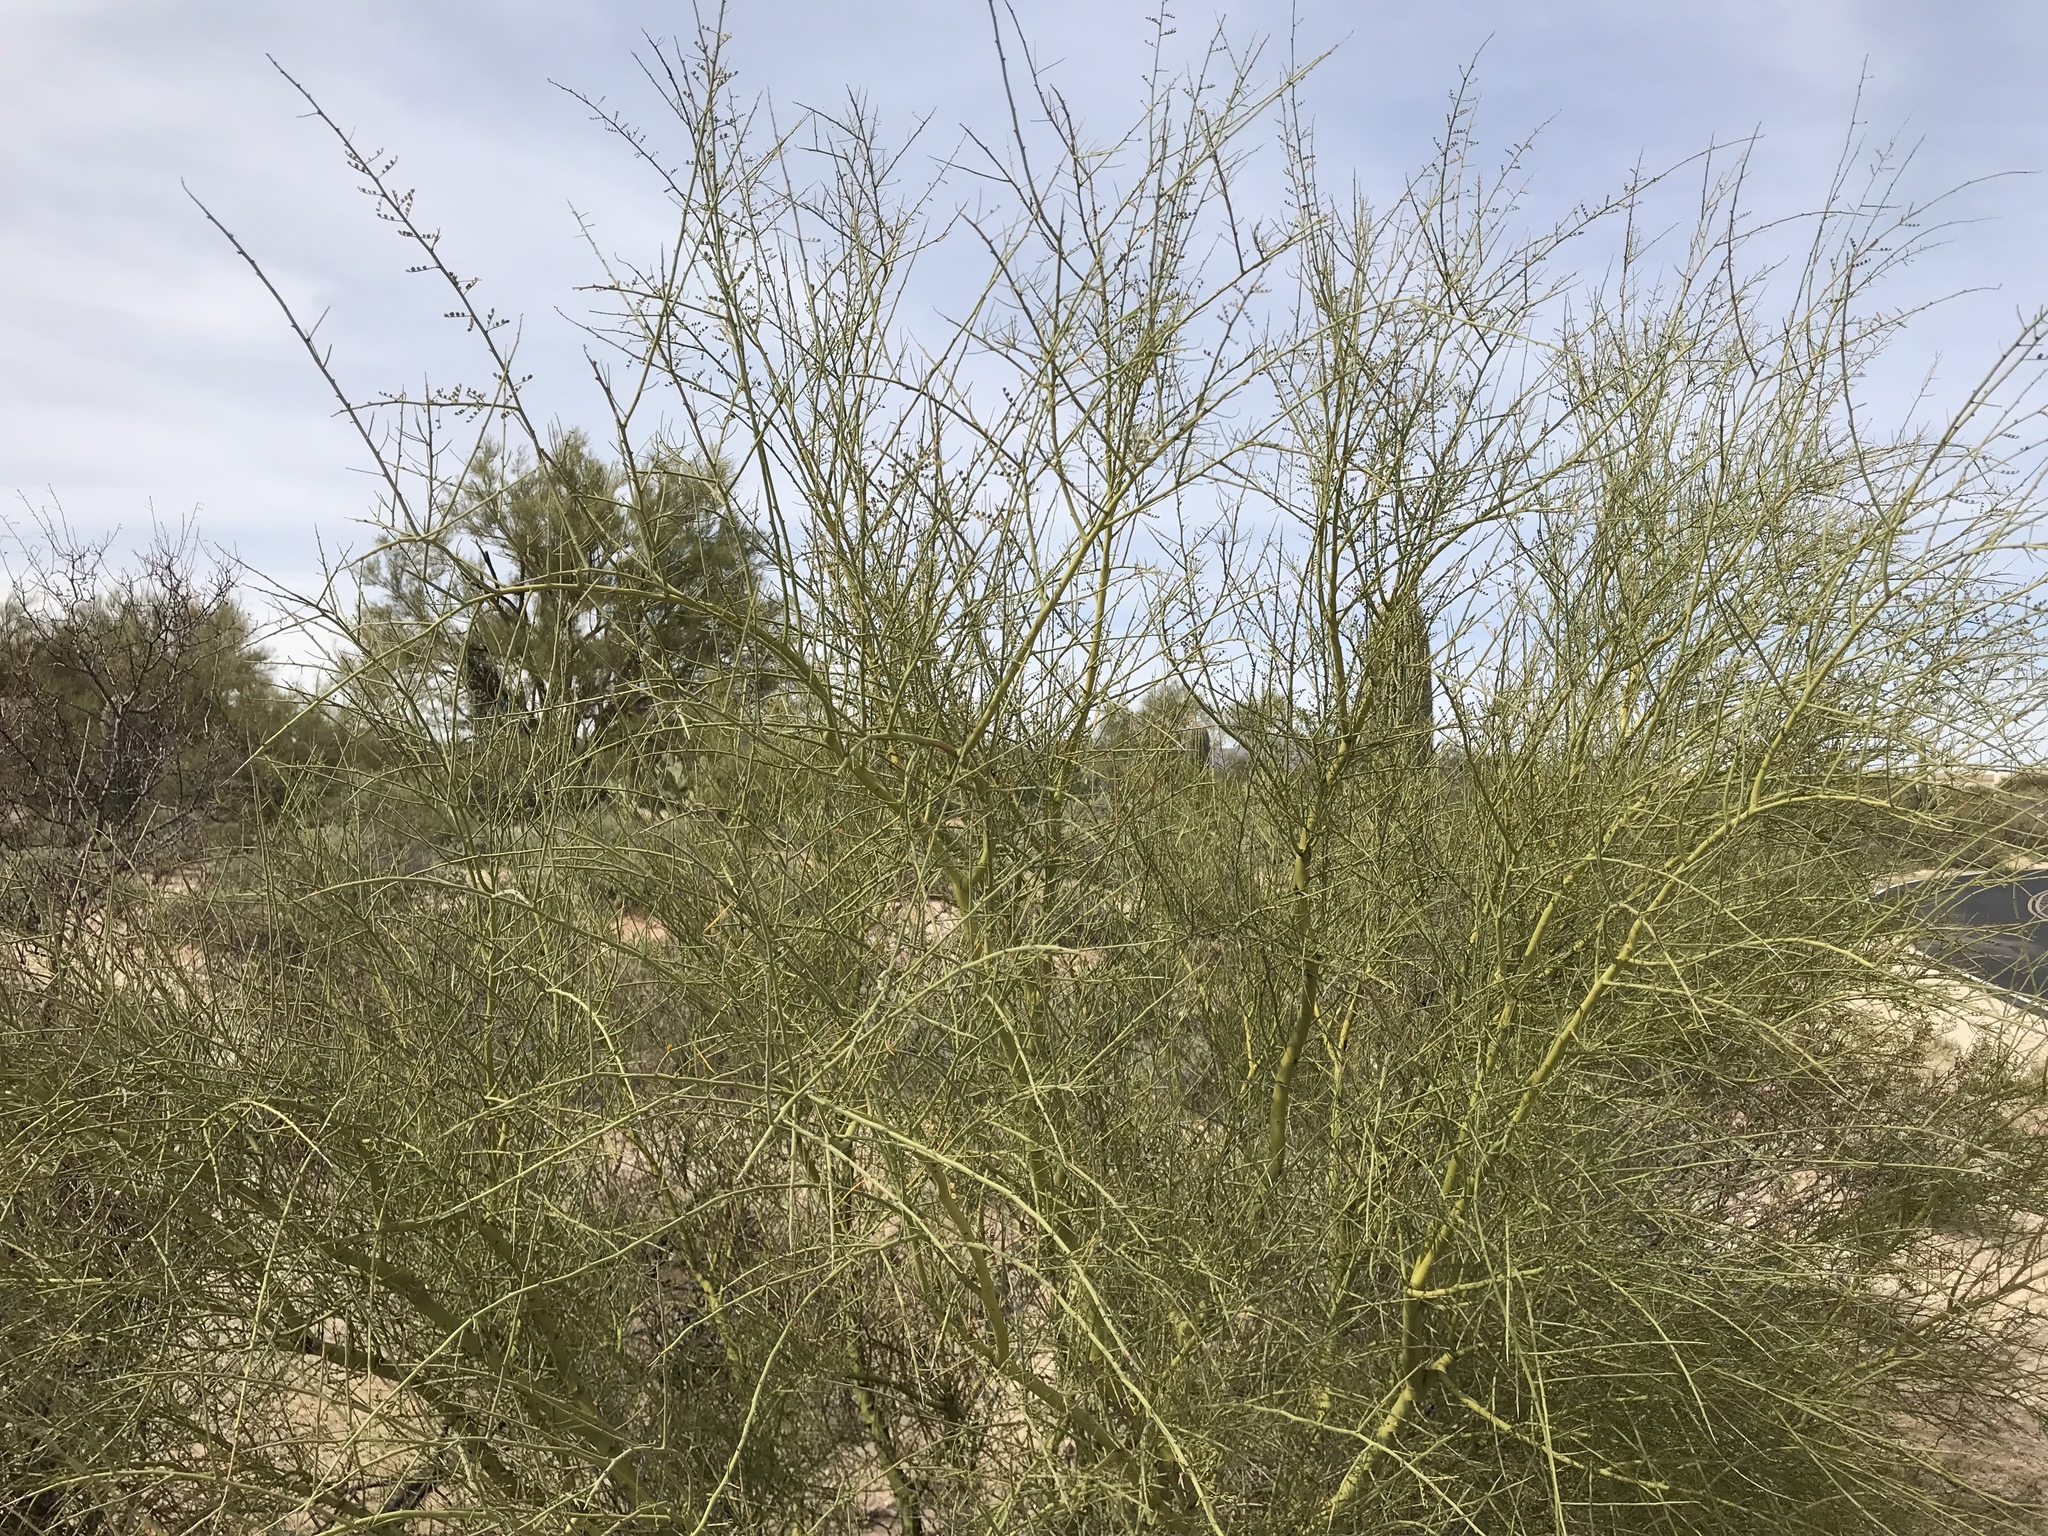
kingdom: Plantae
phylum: Tracheophyta
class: Magnoliopsida
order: Fabales
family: Fabaceae
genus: Parkinsonia
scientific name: Parkinsonia microphylla
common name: Yellow paloverde
